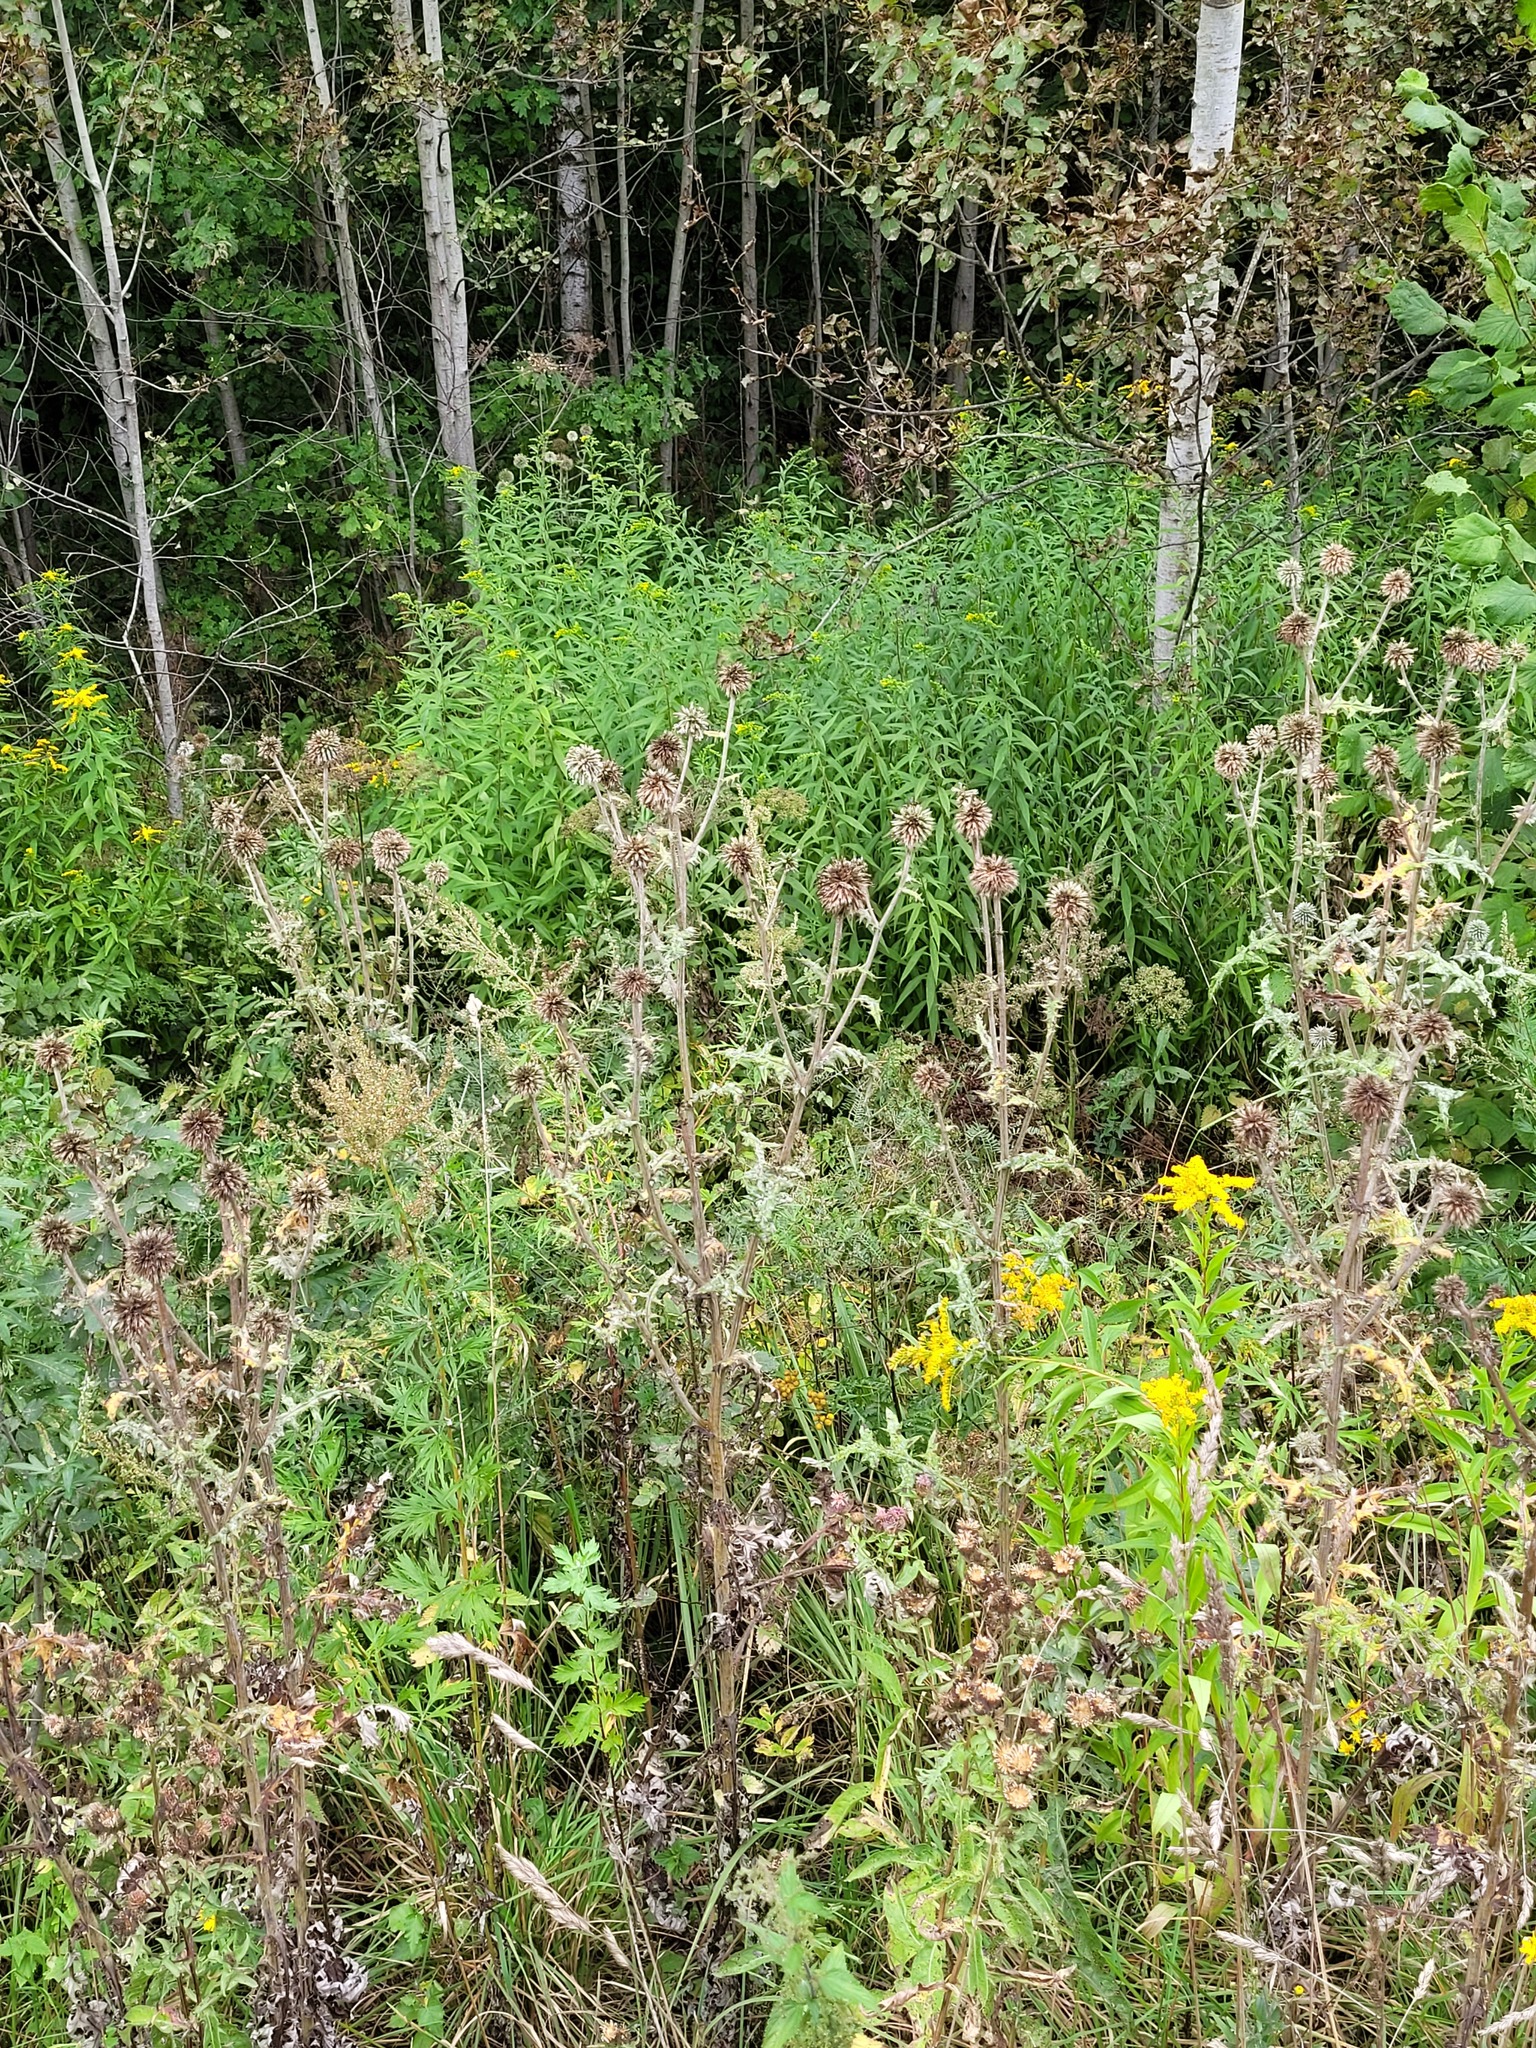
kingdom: Plantae
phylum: Tracheophyta
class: Magnoliopsida
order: Asterales
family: Asteraceae
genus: Echinops
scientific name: Echinops sphaerocephalus
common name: Glandular globe-thistle
